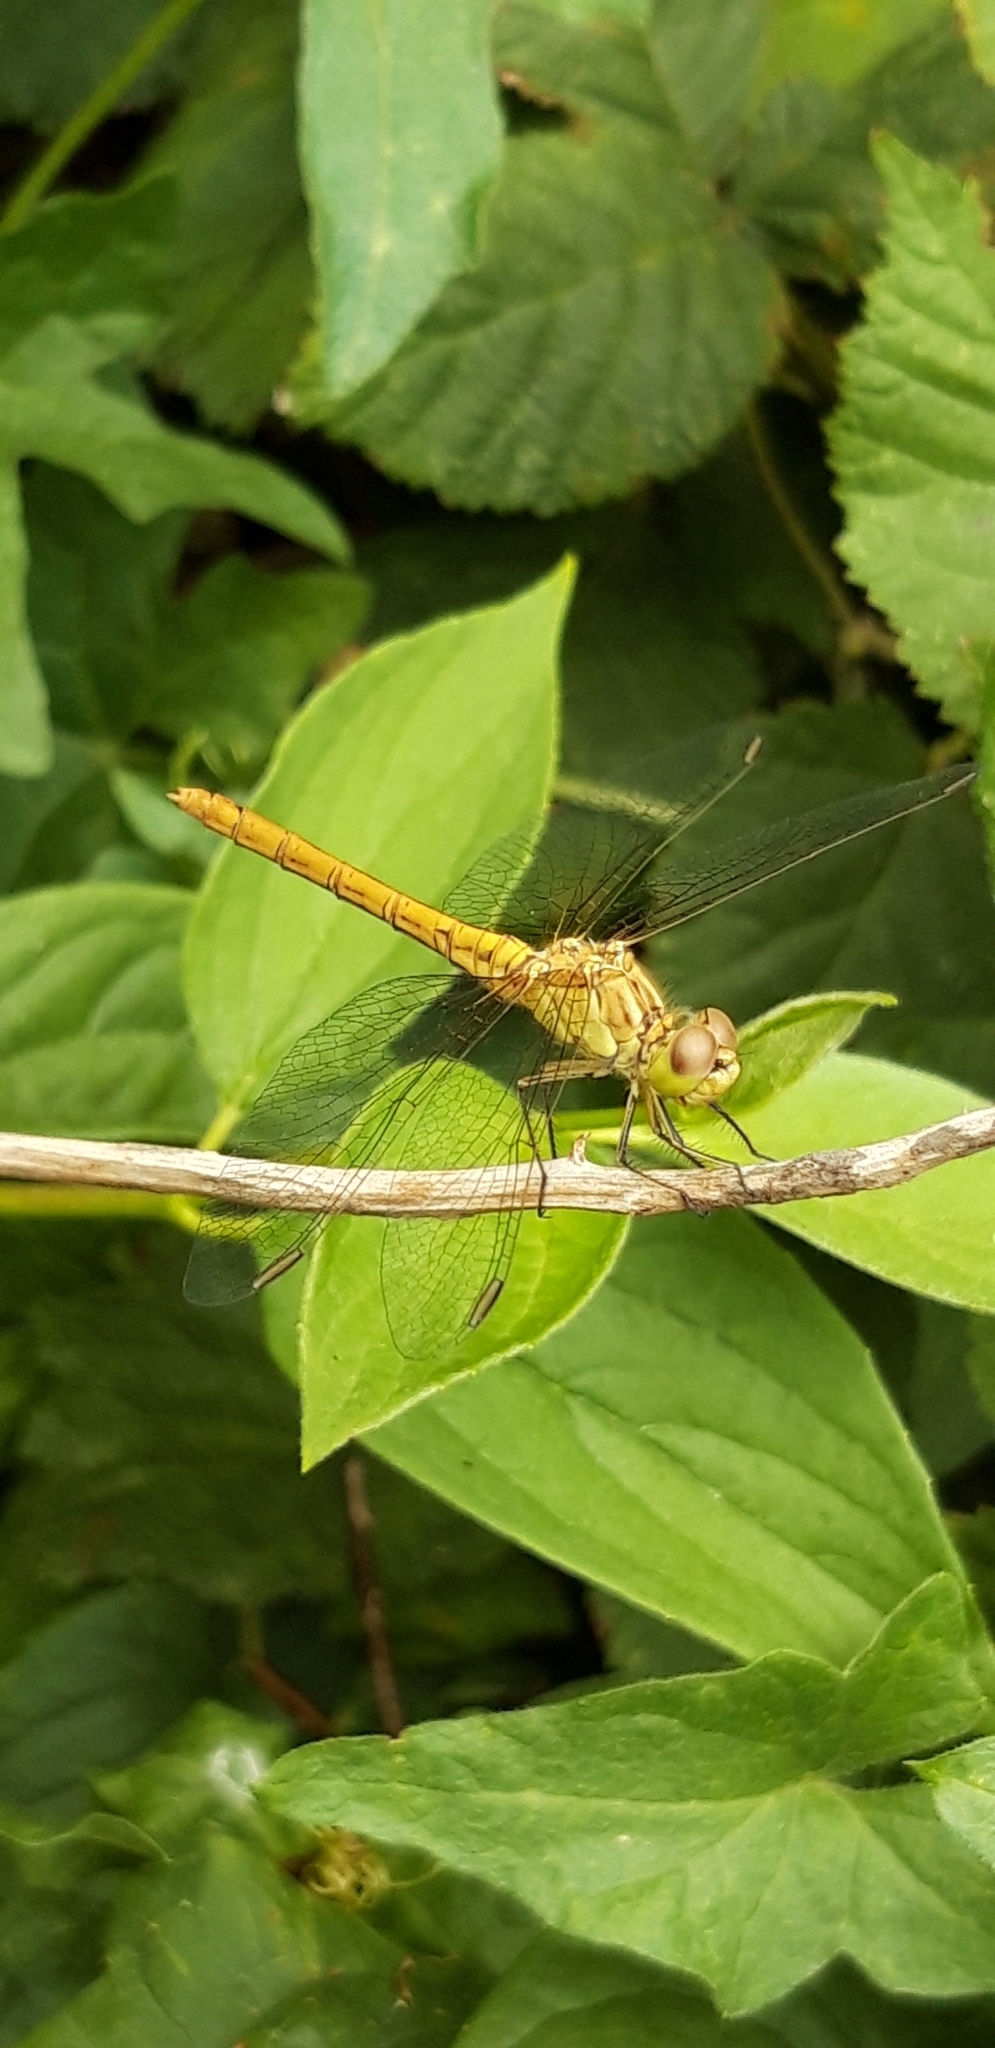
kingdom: Animalia
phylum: Arthropoda
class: Insecta
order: Odonata
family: Libellulidae
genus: Sympetrum
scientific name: Sympetrum meridionale
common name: Southern darter
